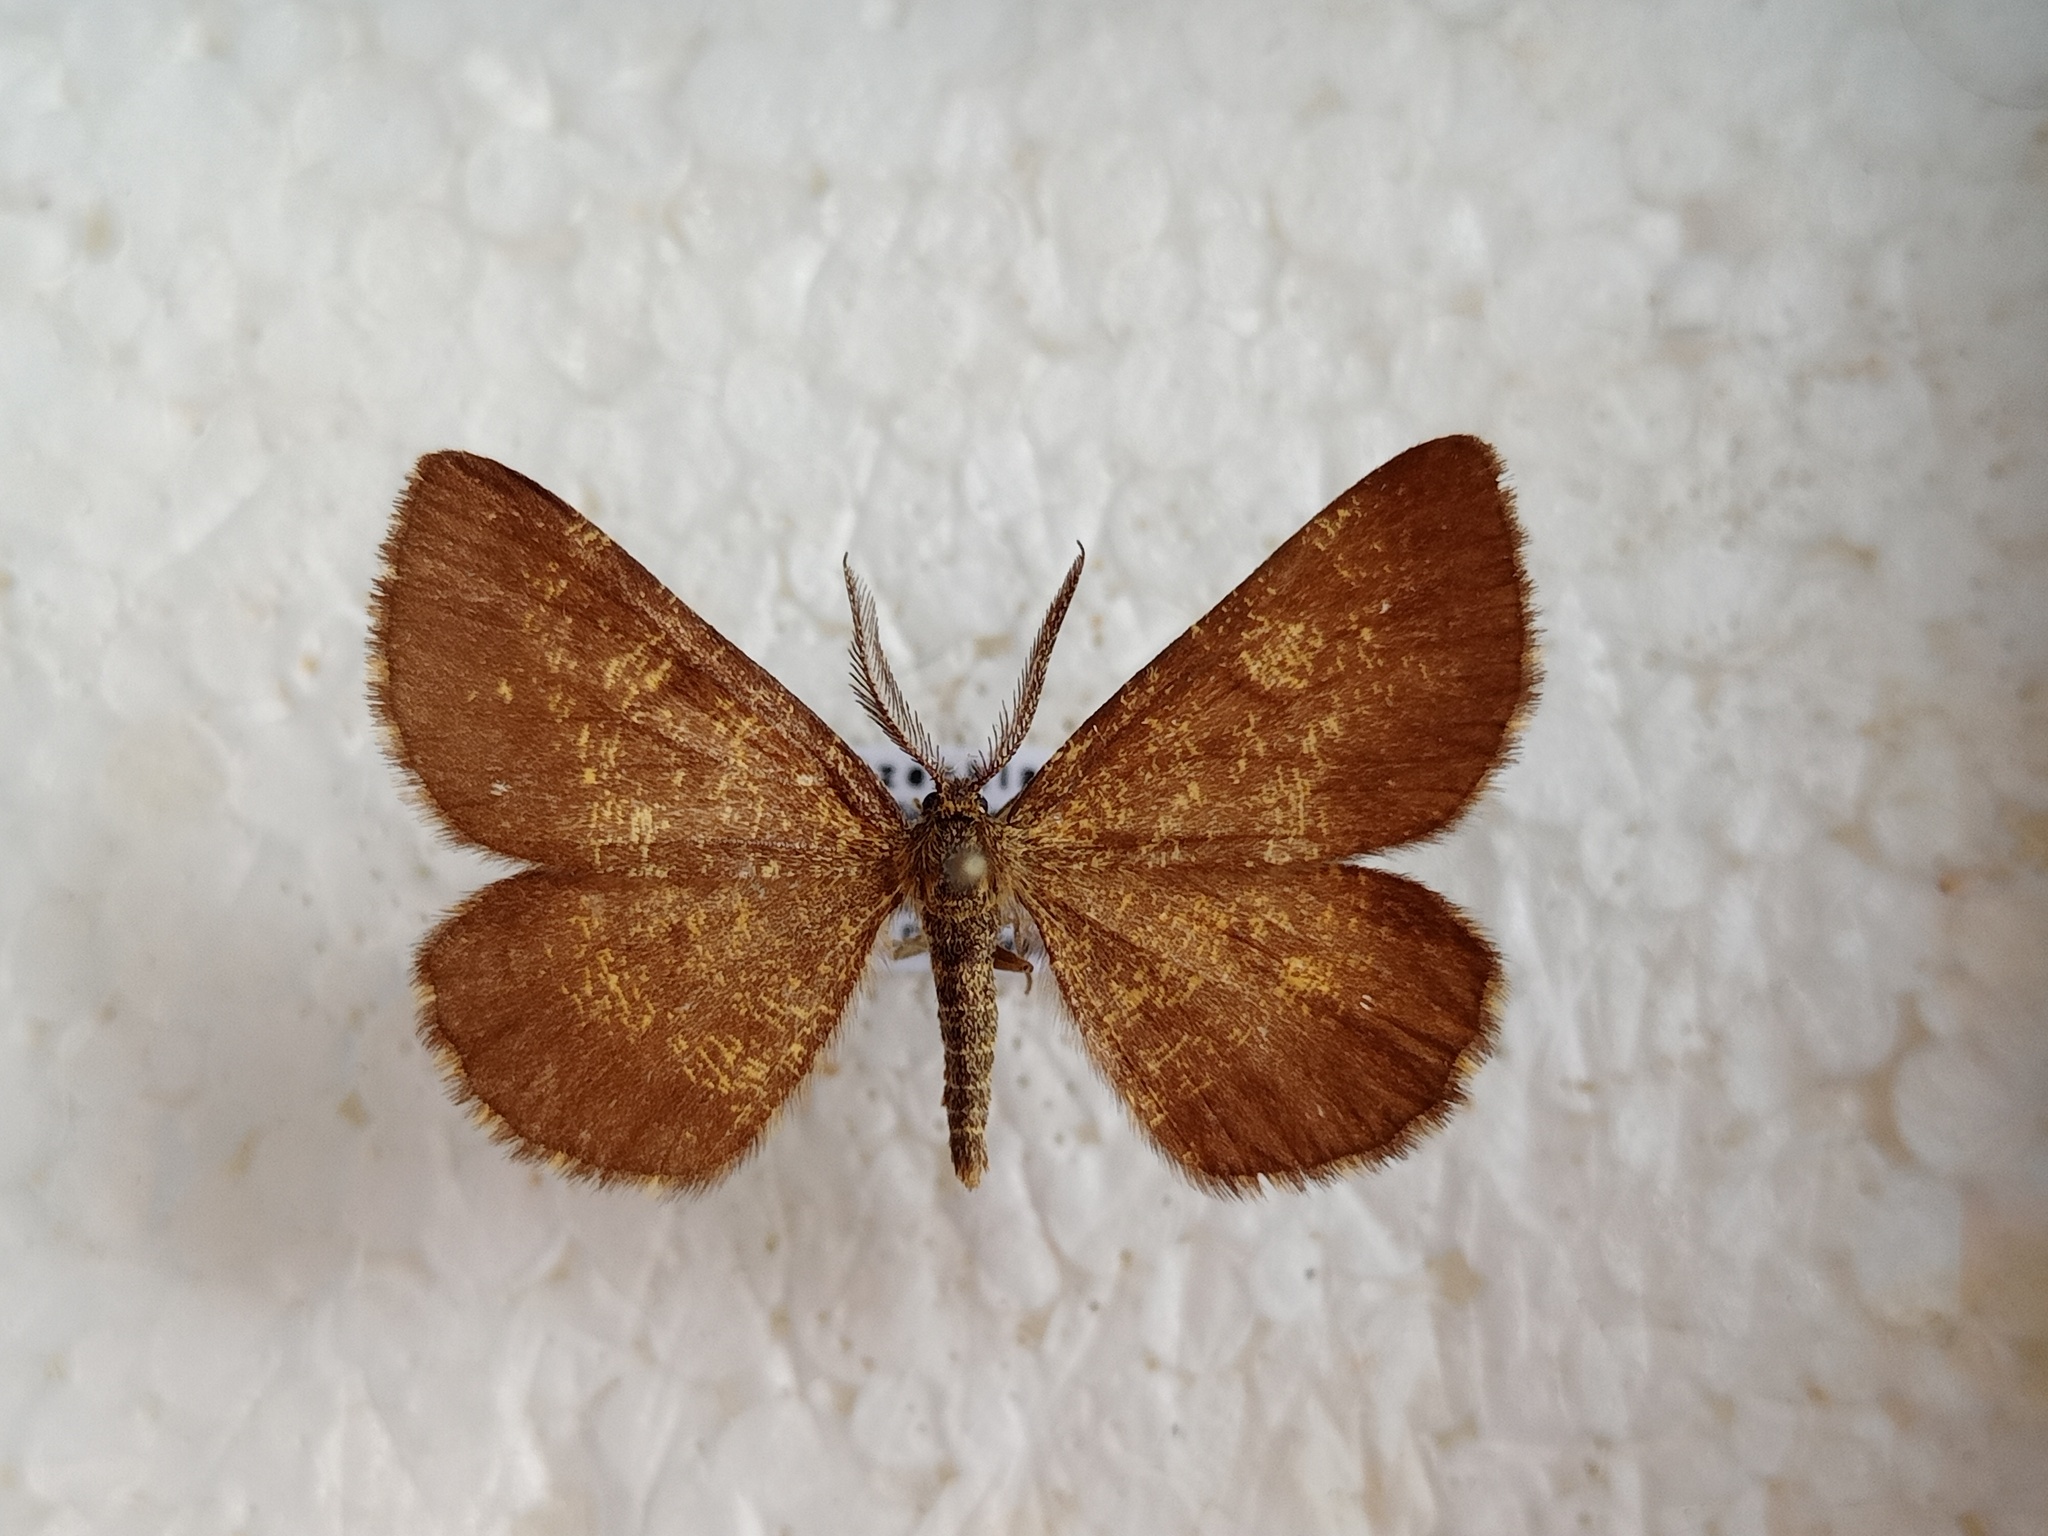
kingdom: Animalia
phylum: Arthropoda
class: Insecta
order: Lepidoptera
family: Geometridae
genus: Ematurga
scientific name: Ematurga atomaria
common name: Common heath
